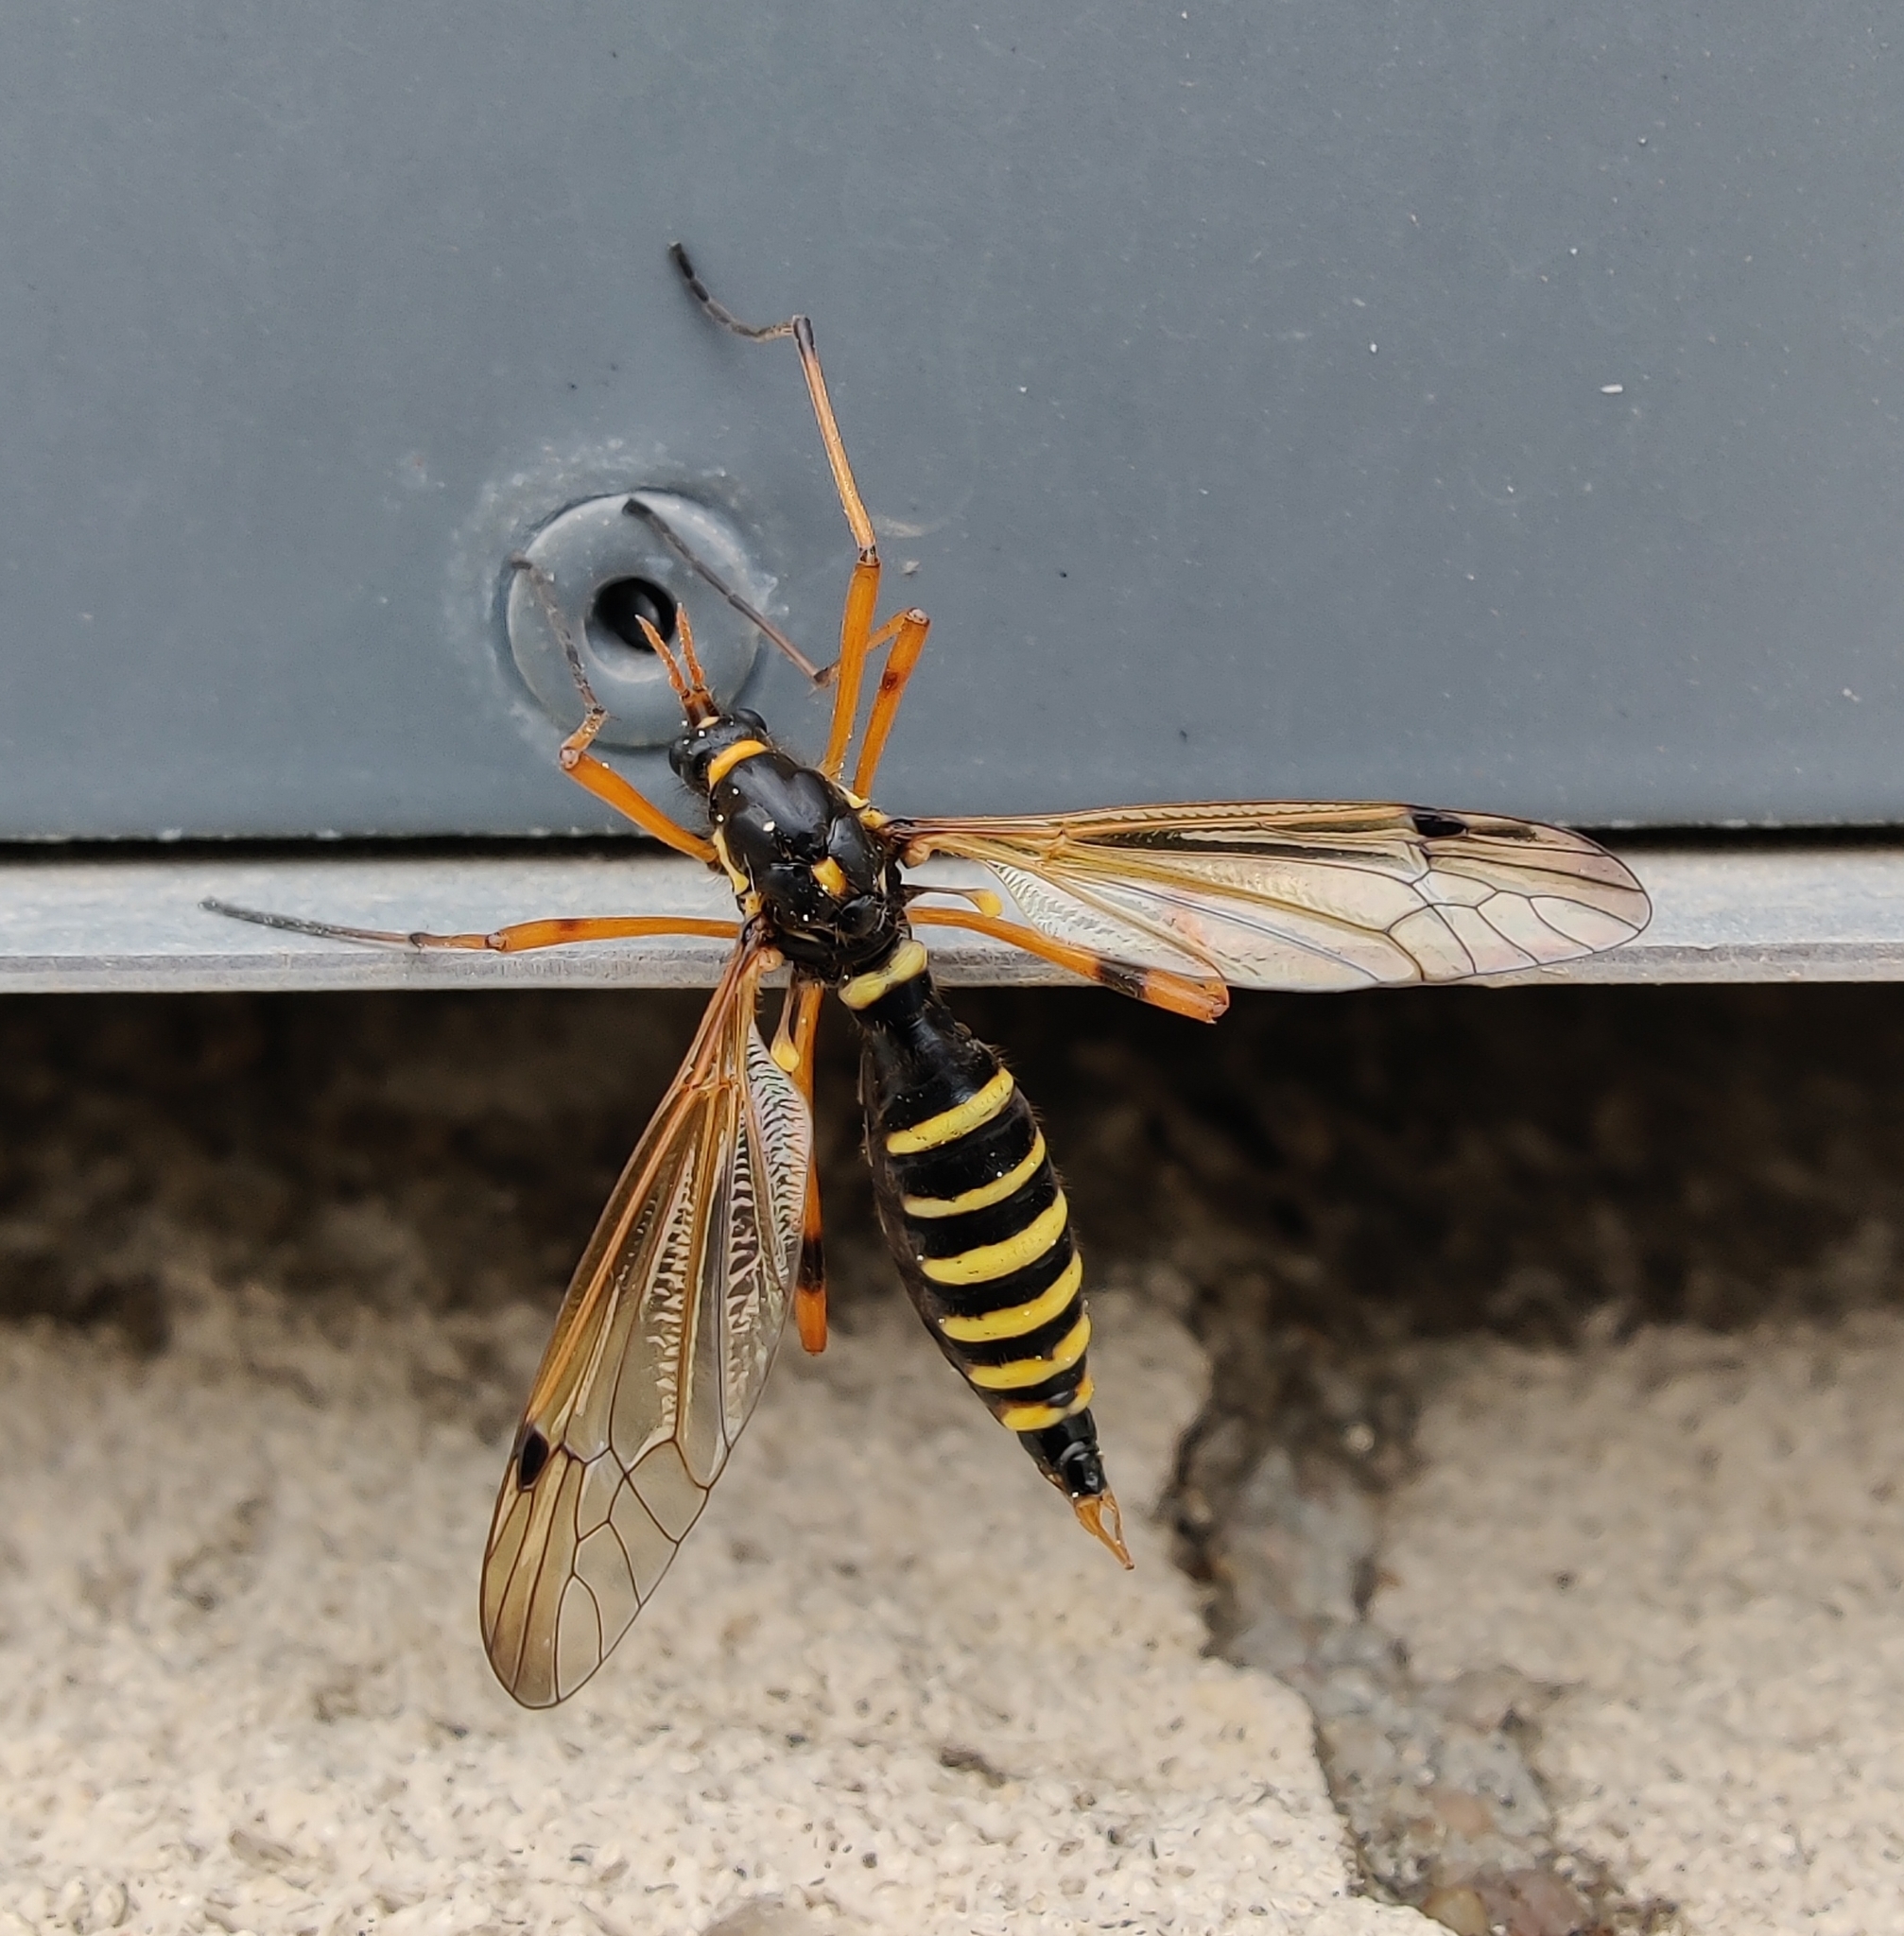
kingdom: Animalia
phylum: Arthropoda
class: Insecta
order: Diptera
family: Tipulidae
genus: Ctenophora
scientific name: Ctenophora flaveolata
